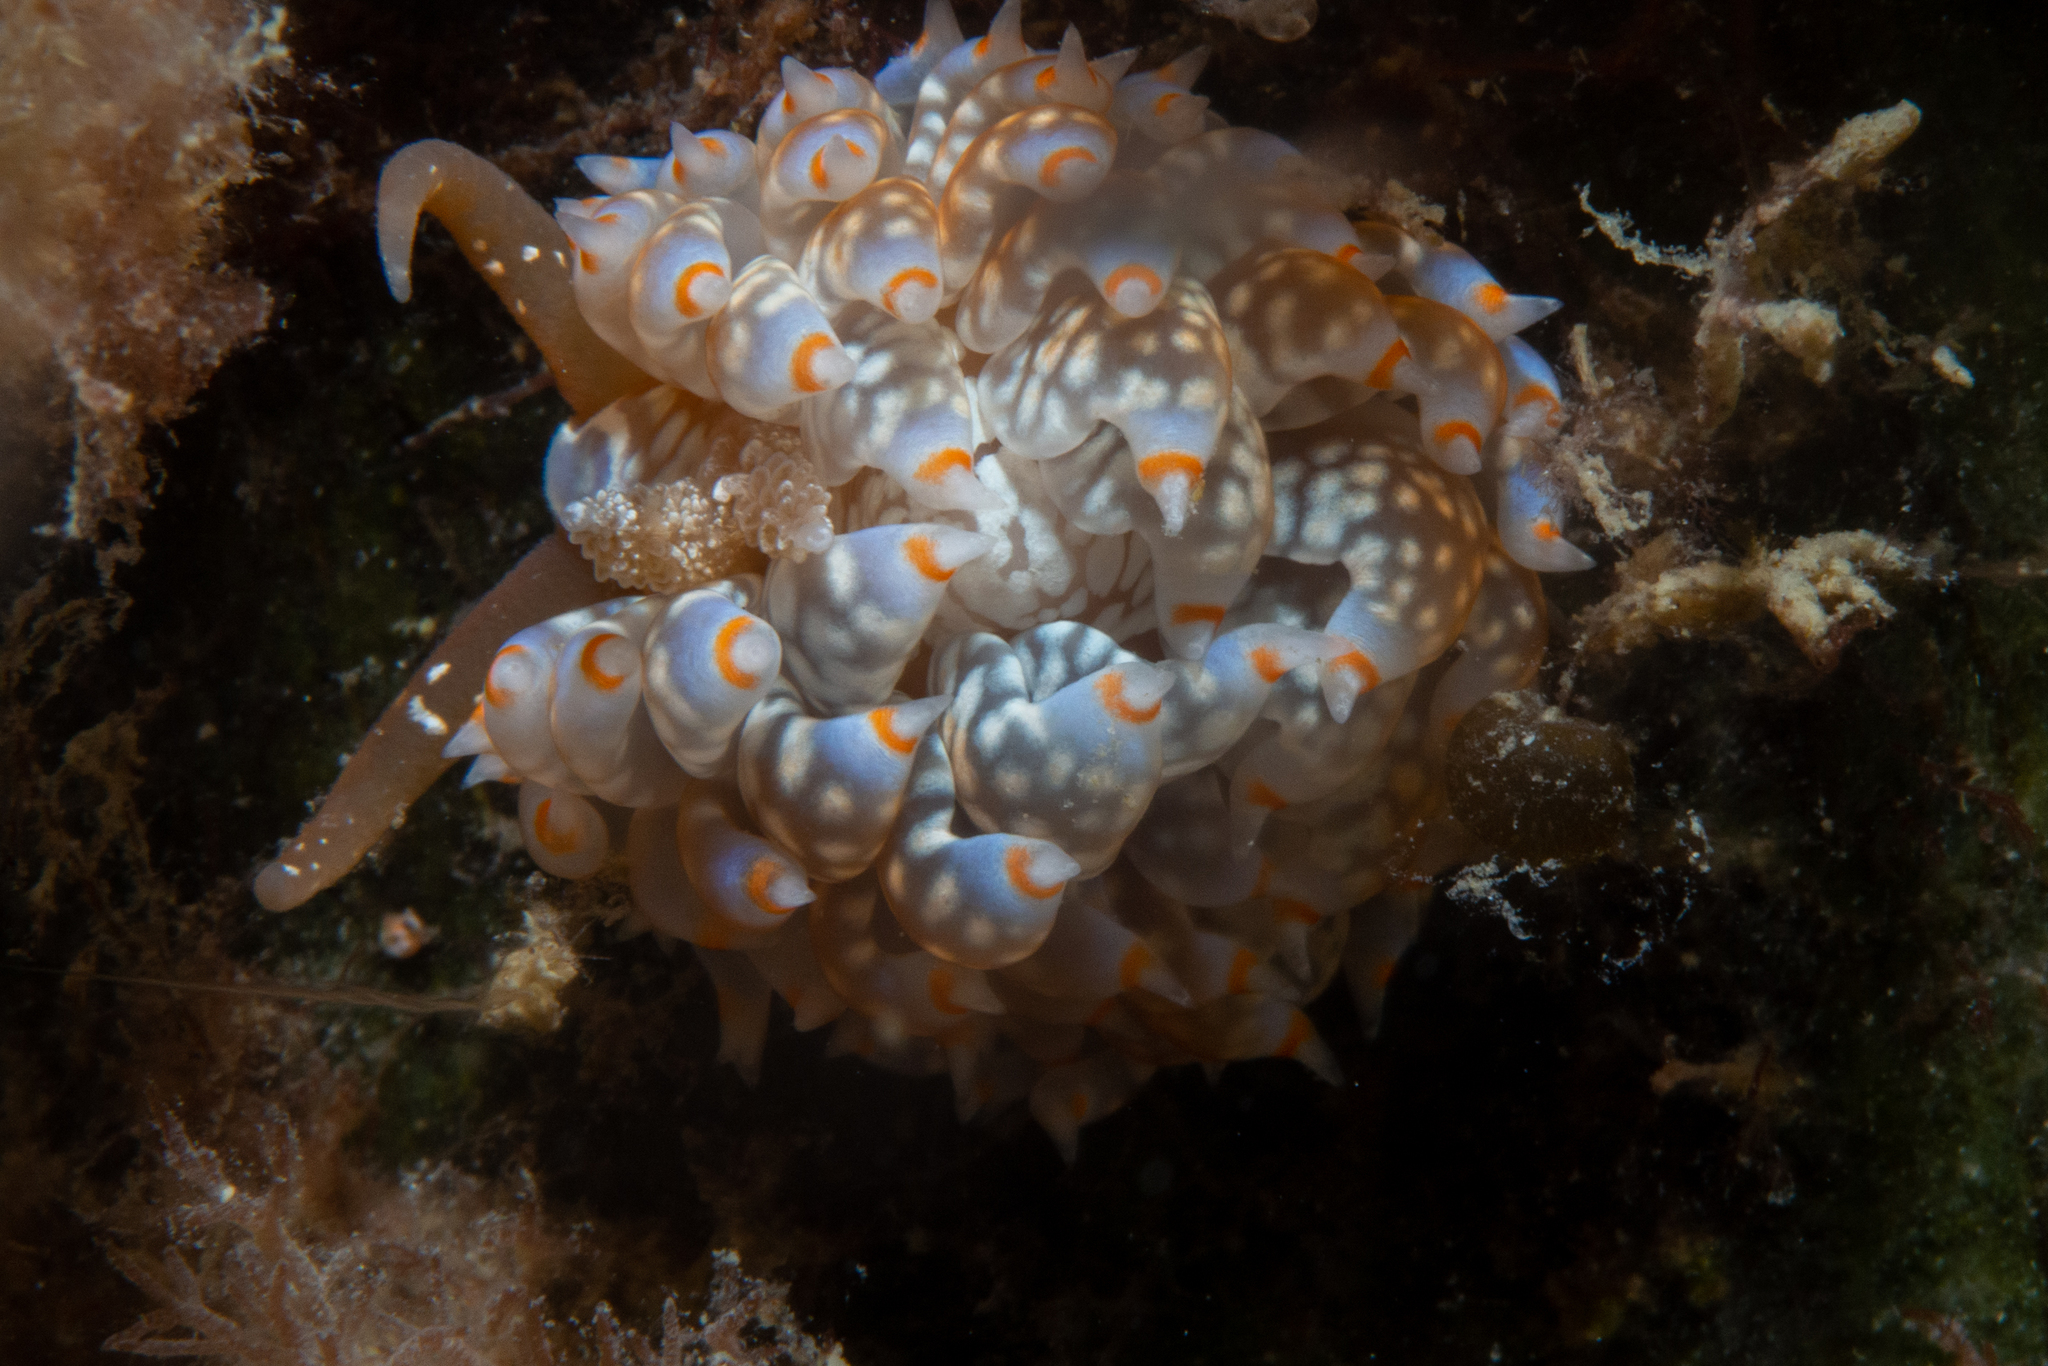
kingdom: Animalia
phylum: Mollusca
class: Gastropoda
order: Nudibranchia
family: Aeolidiidae
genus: Baeolidia
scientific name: Baeolidia australis
